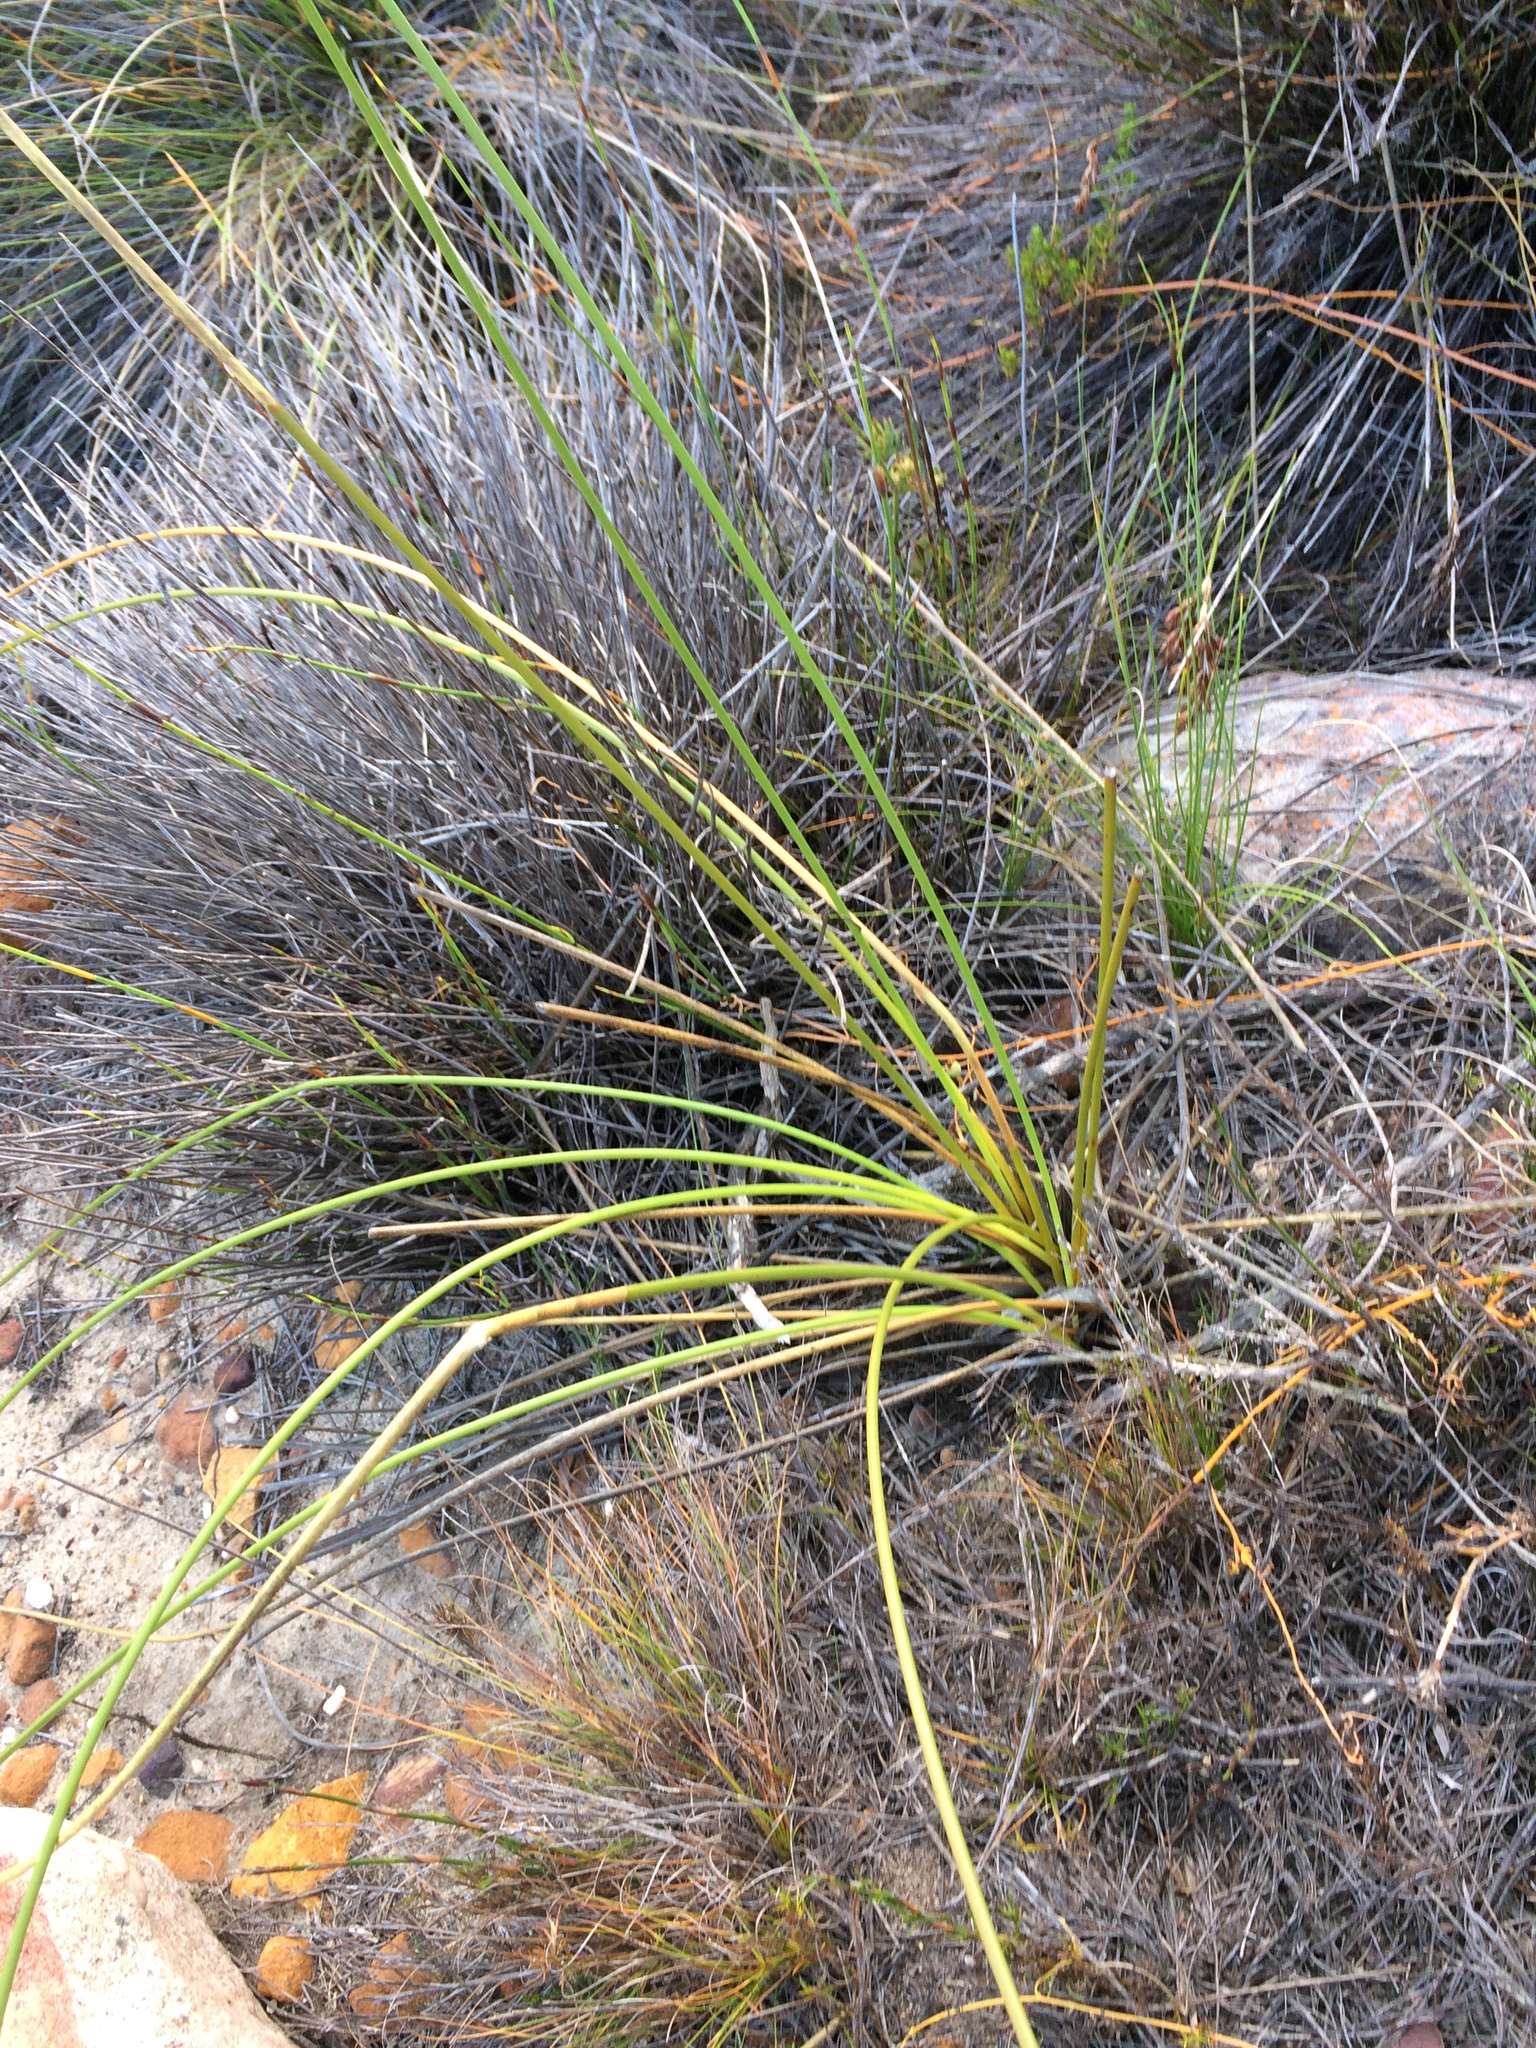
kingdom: Plantae
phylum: Tracheophyta
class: Liliopsida
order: Asparagales
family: Iridaceae
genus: Bobartia
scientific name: Bobartia indica
